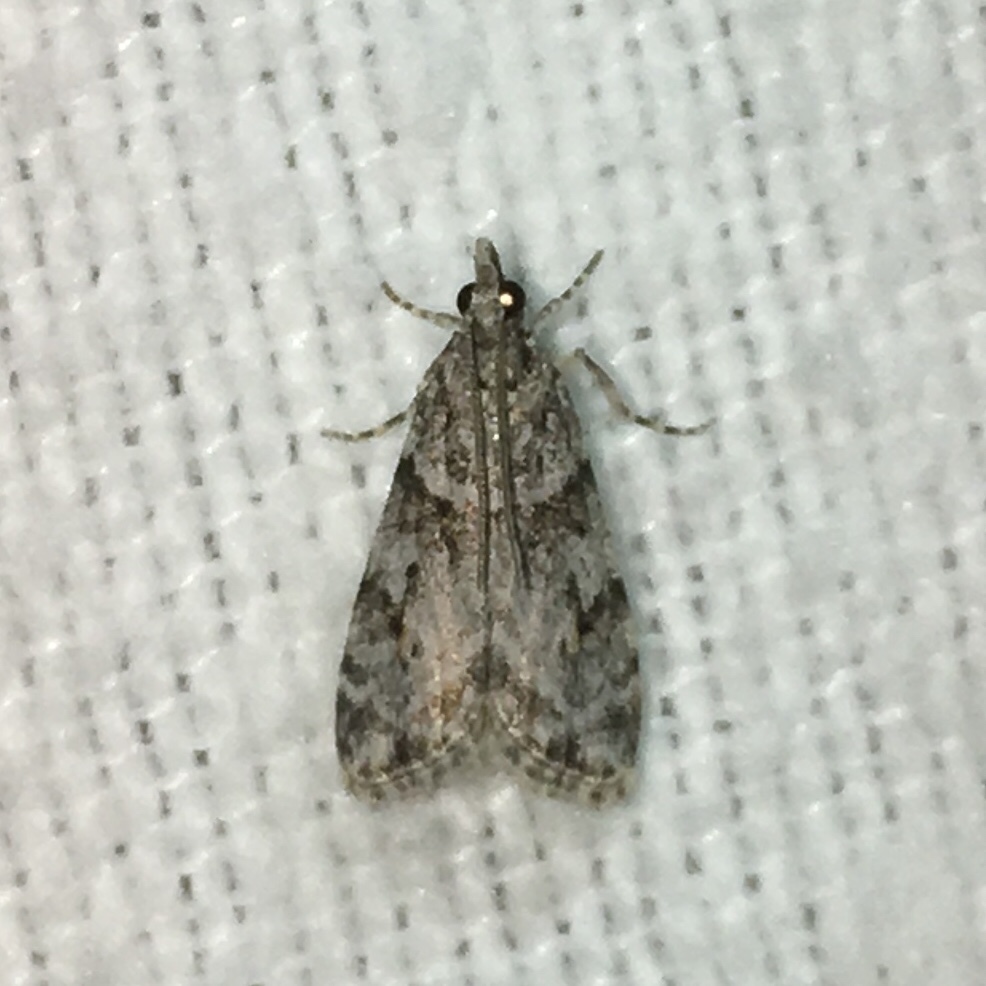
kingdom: Animalia
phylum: Arthropoda
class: Insecta
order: Lepidoptera
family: Crambidae
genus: Scoparia
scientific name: Scoparia biplagialis
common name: Double-striped scoparia moth
